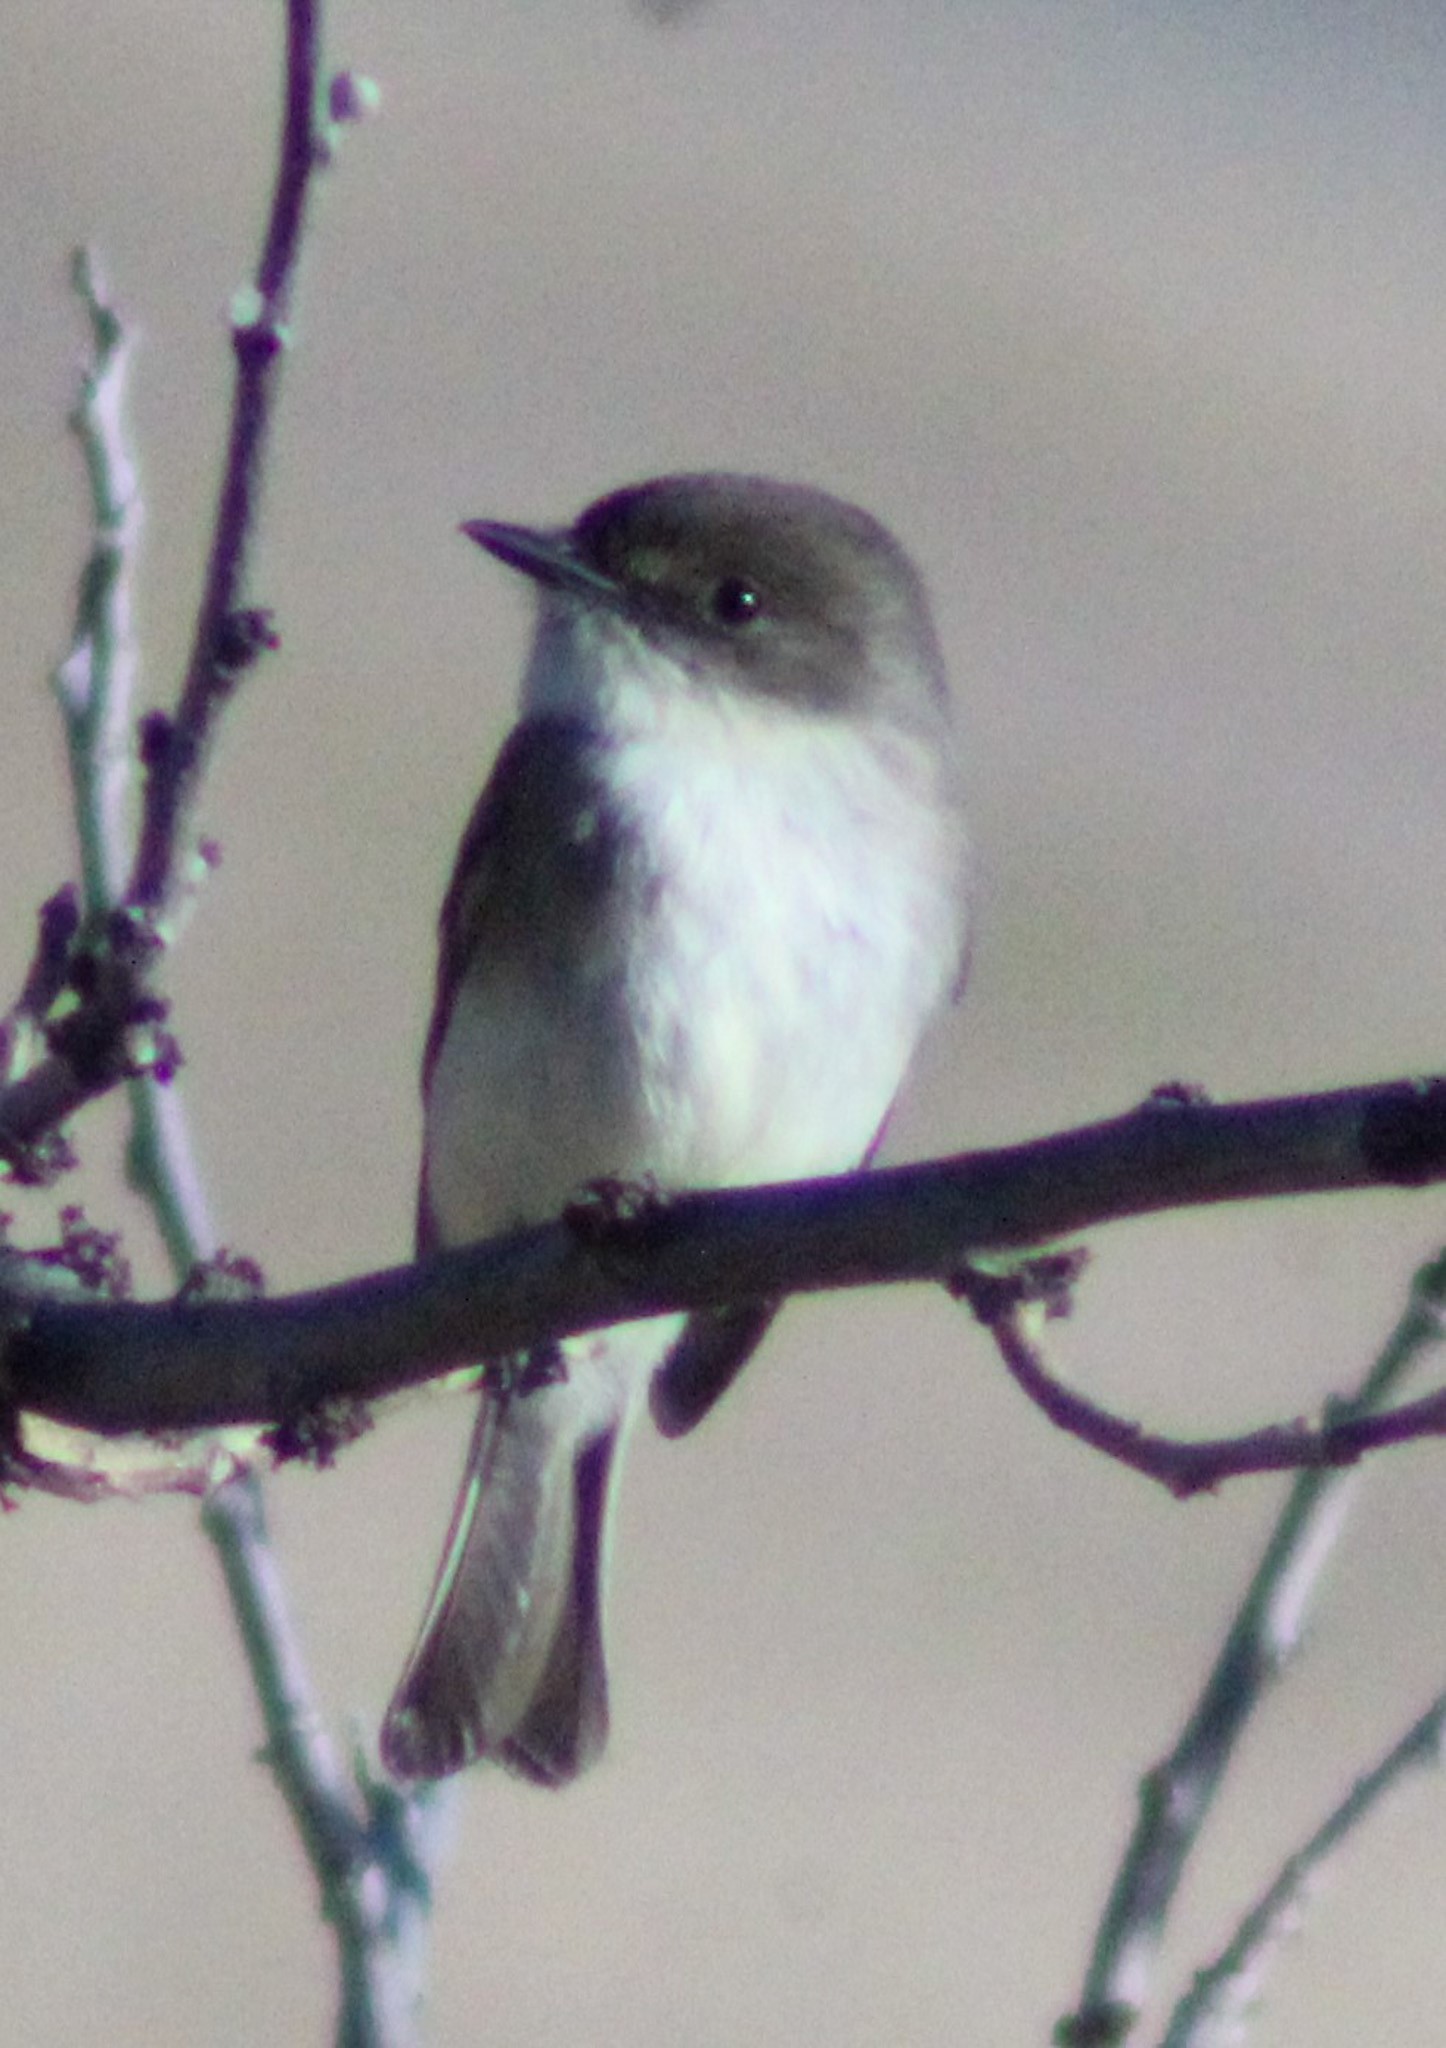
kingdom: Animalia
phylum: Chordata
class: Aves
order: Passeriformes
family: Tyrannidae
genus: Sayornis
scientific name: Sayornis phoebe
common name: Eastern phoebe
